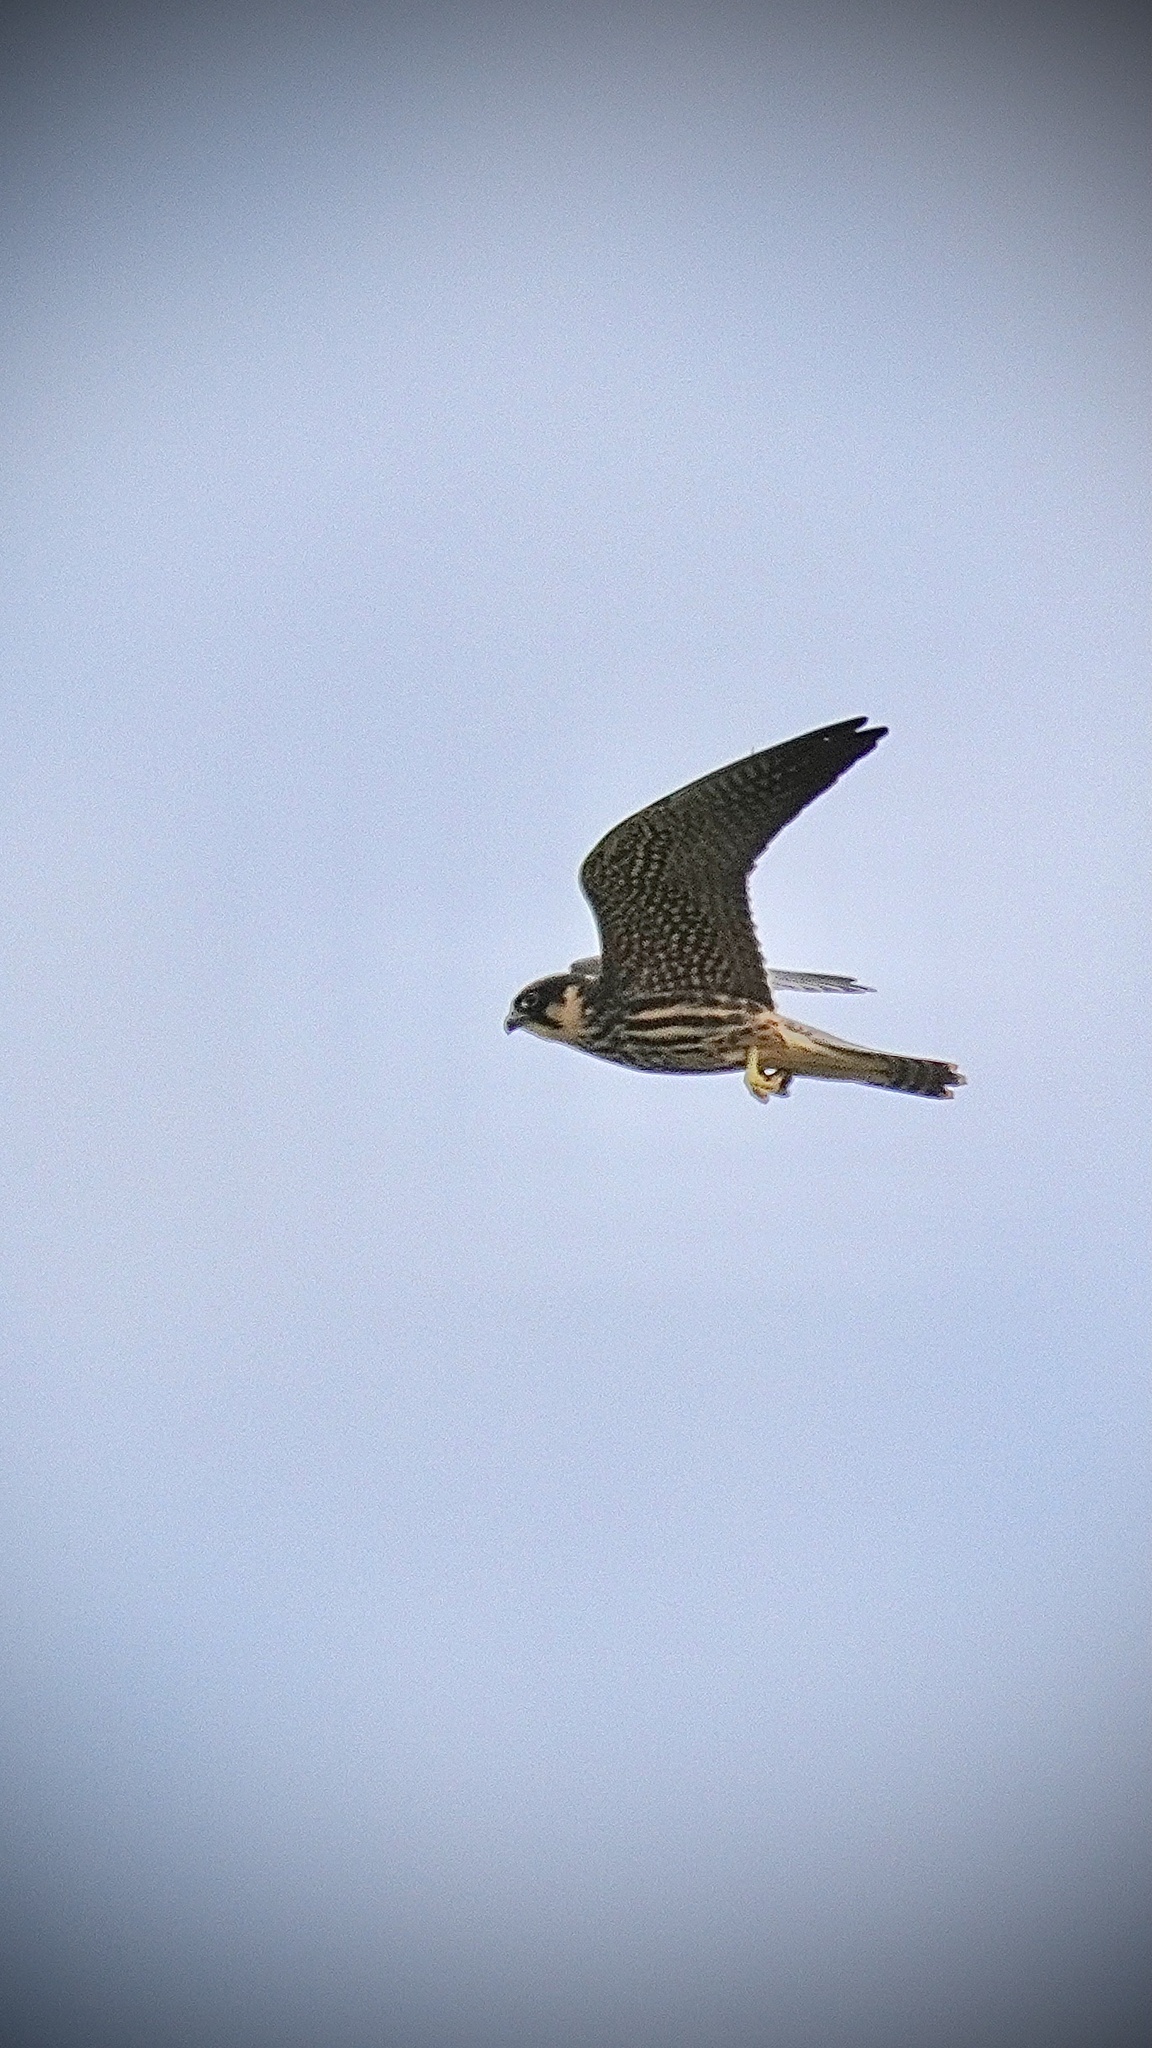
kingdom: Animalia
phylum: Chordata
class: Aves
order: Falconiformes
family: Falconidae
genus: Falco
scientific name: Falco subbuteo
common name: Eurasian hobby
